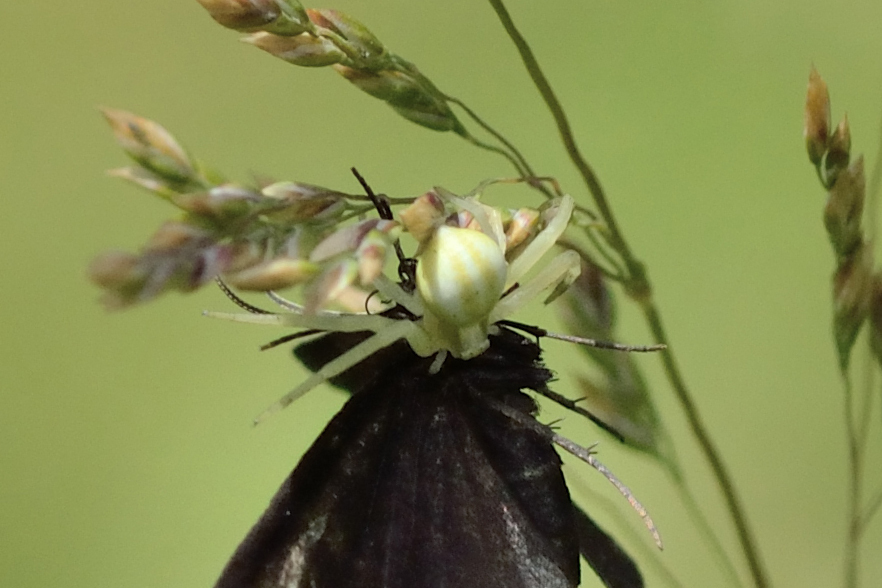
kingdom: Animalia
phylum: Arthropoda
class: Arachnida
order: Araneae
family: Thomisidae
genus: Misumena
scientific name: Misumena vatia
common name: Goldenrod crab spider
